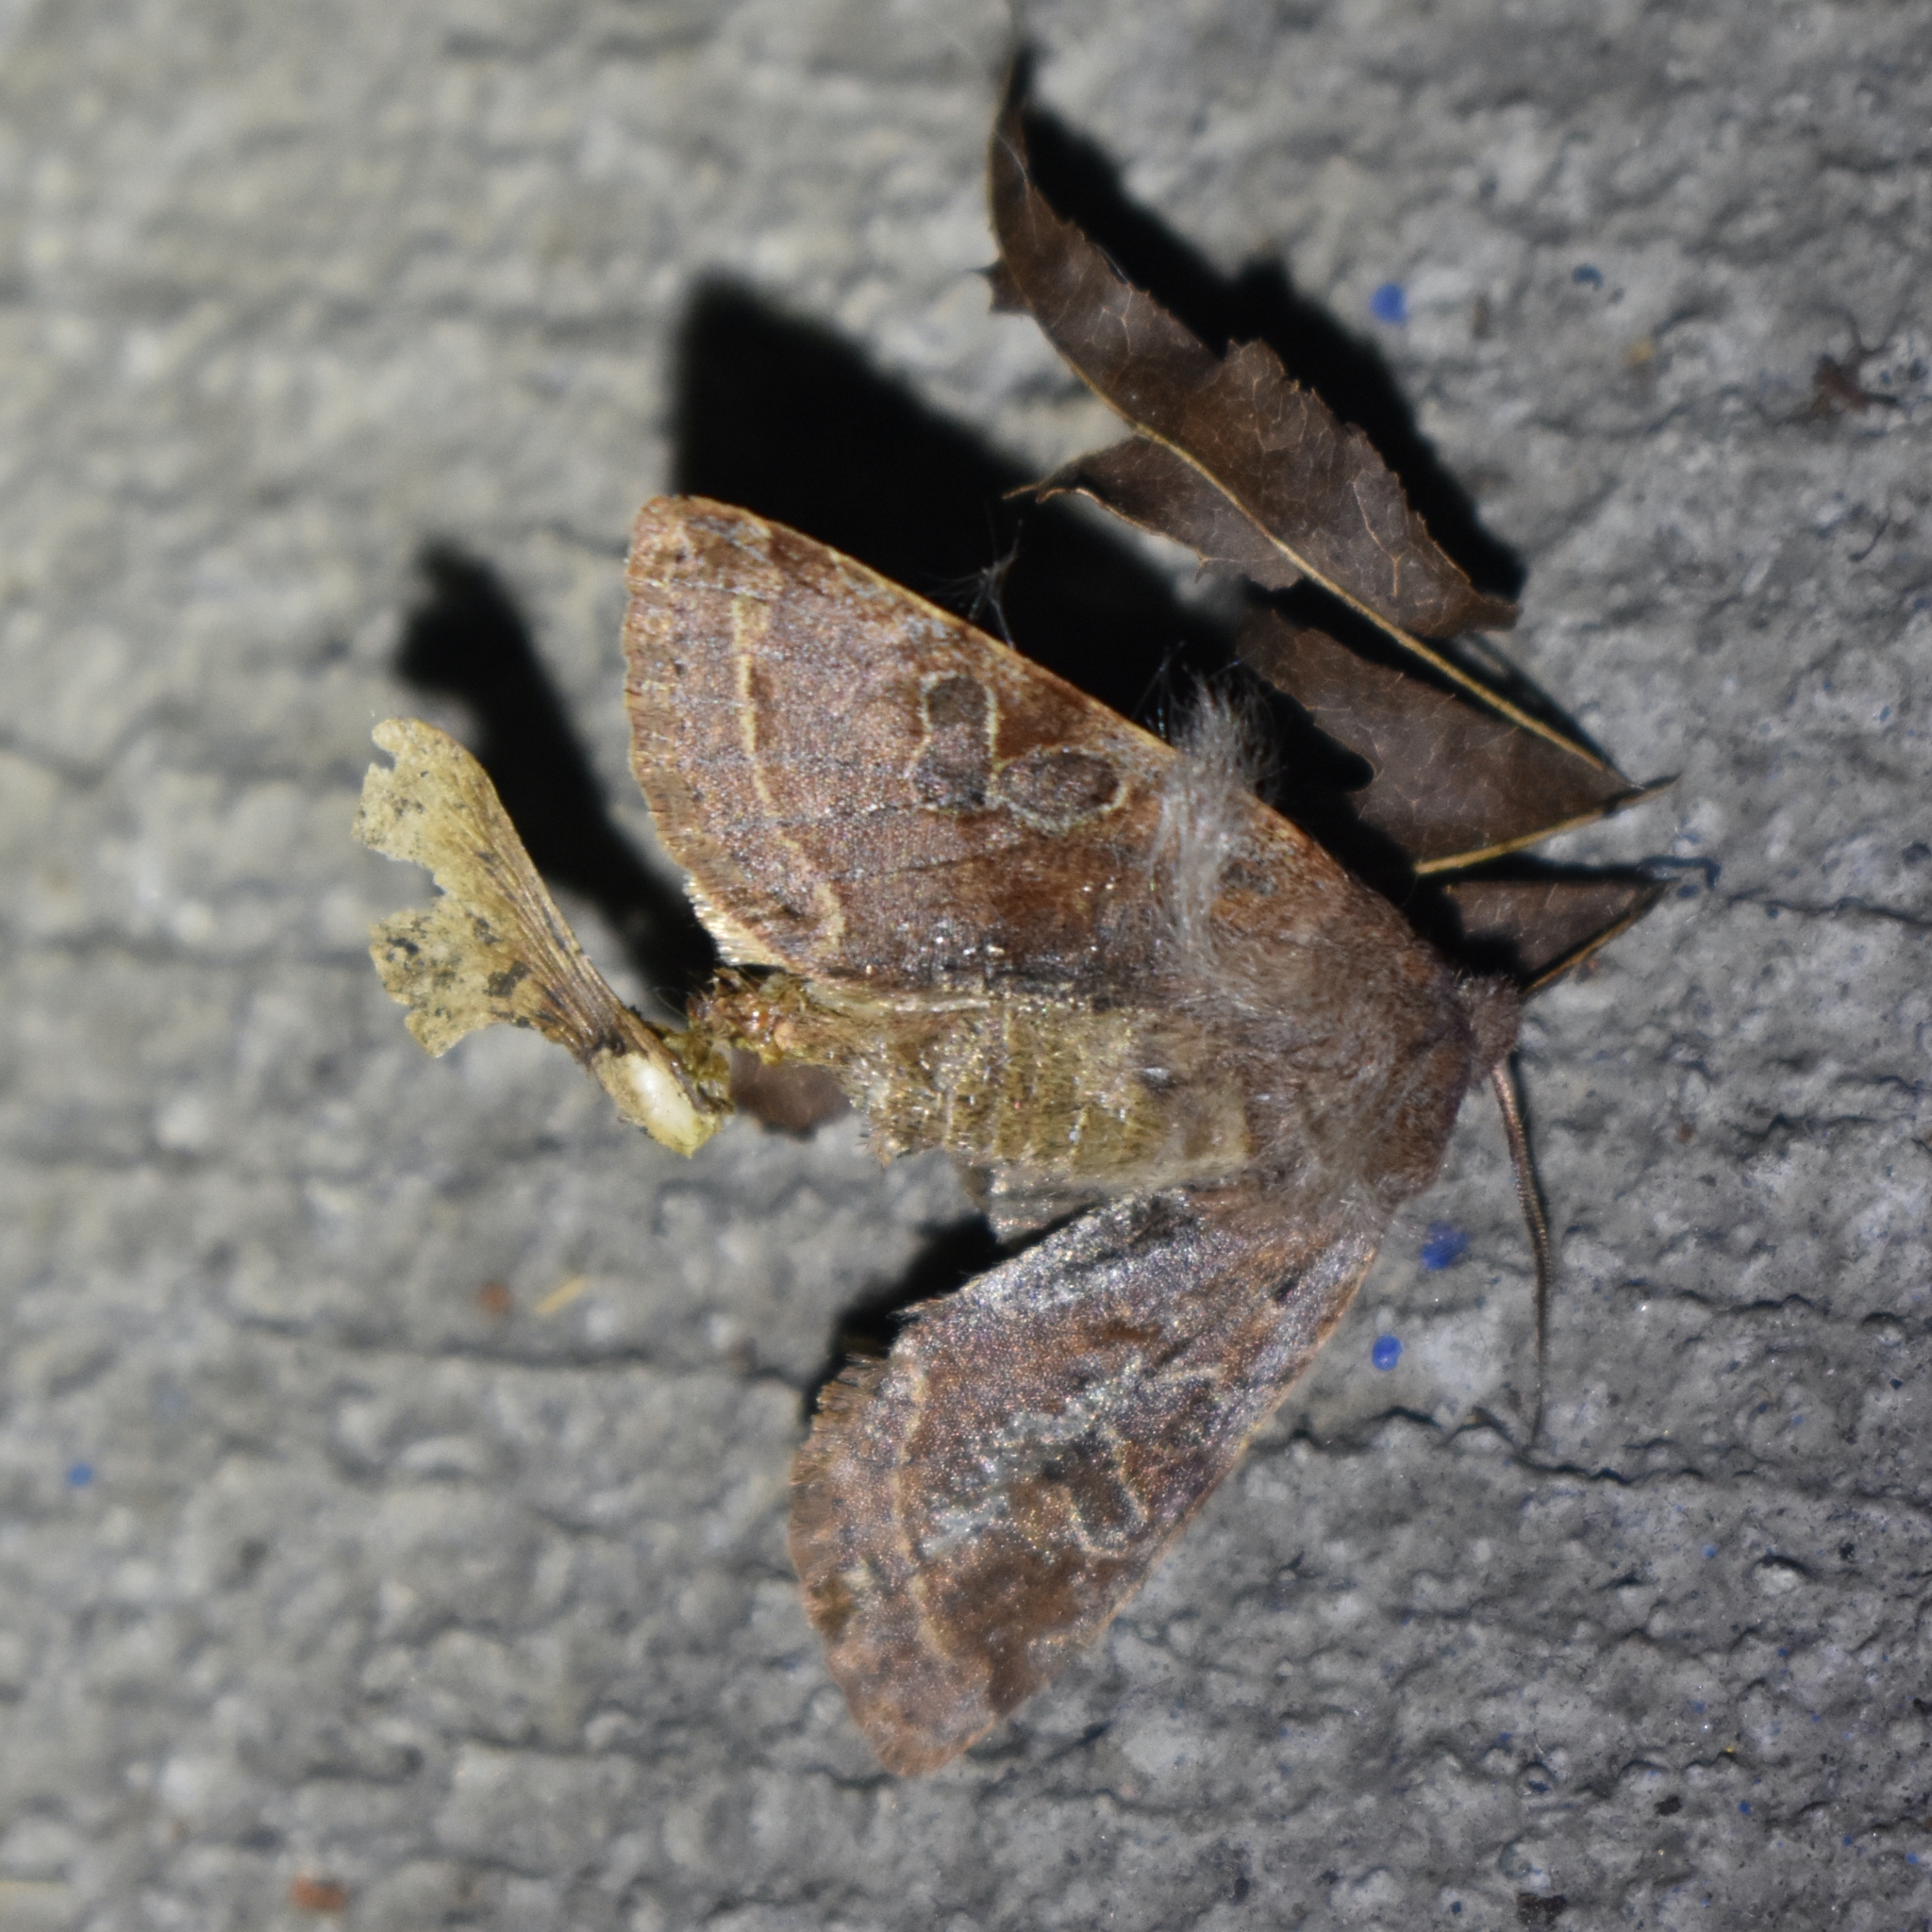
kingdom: Animalia
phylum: Arthropoda
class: Insecta
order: Lepidoptera
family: Noctuidae
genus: Orthosia
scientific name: Orthosia hibisci
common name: Green fruitworm
